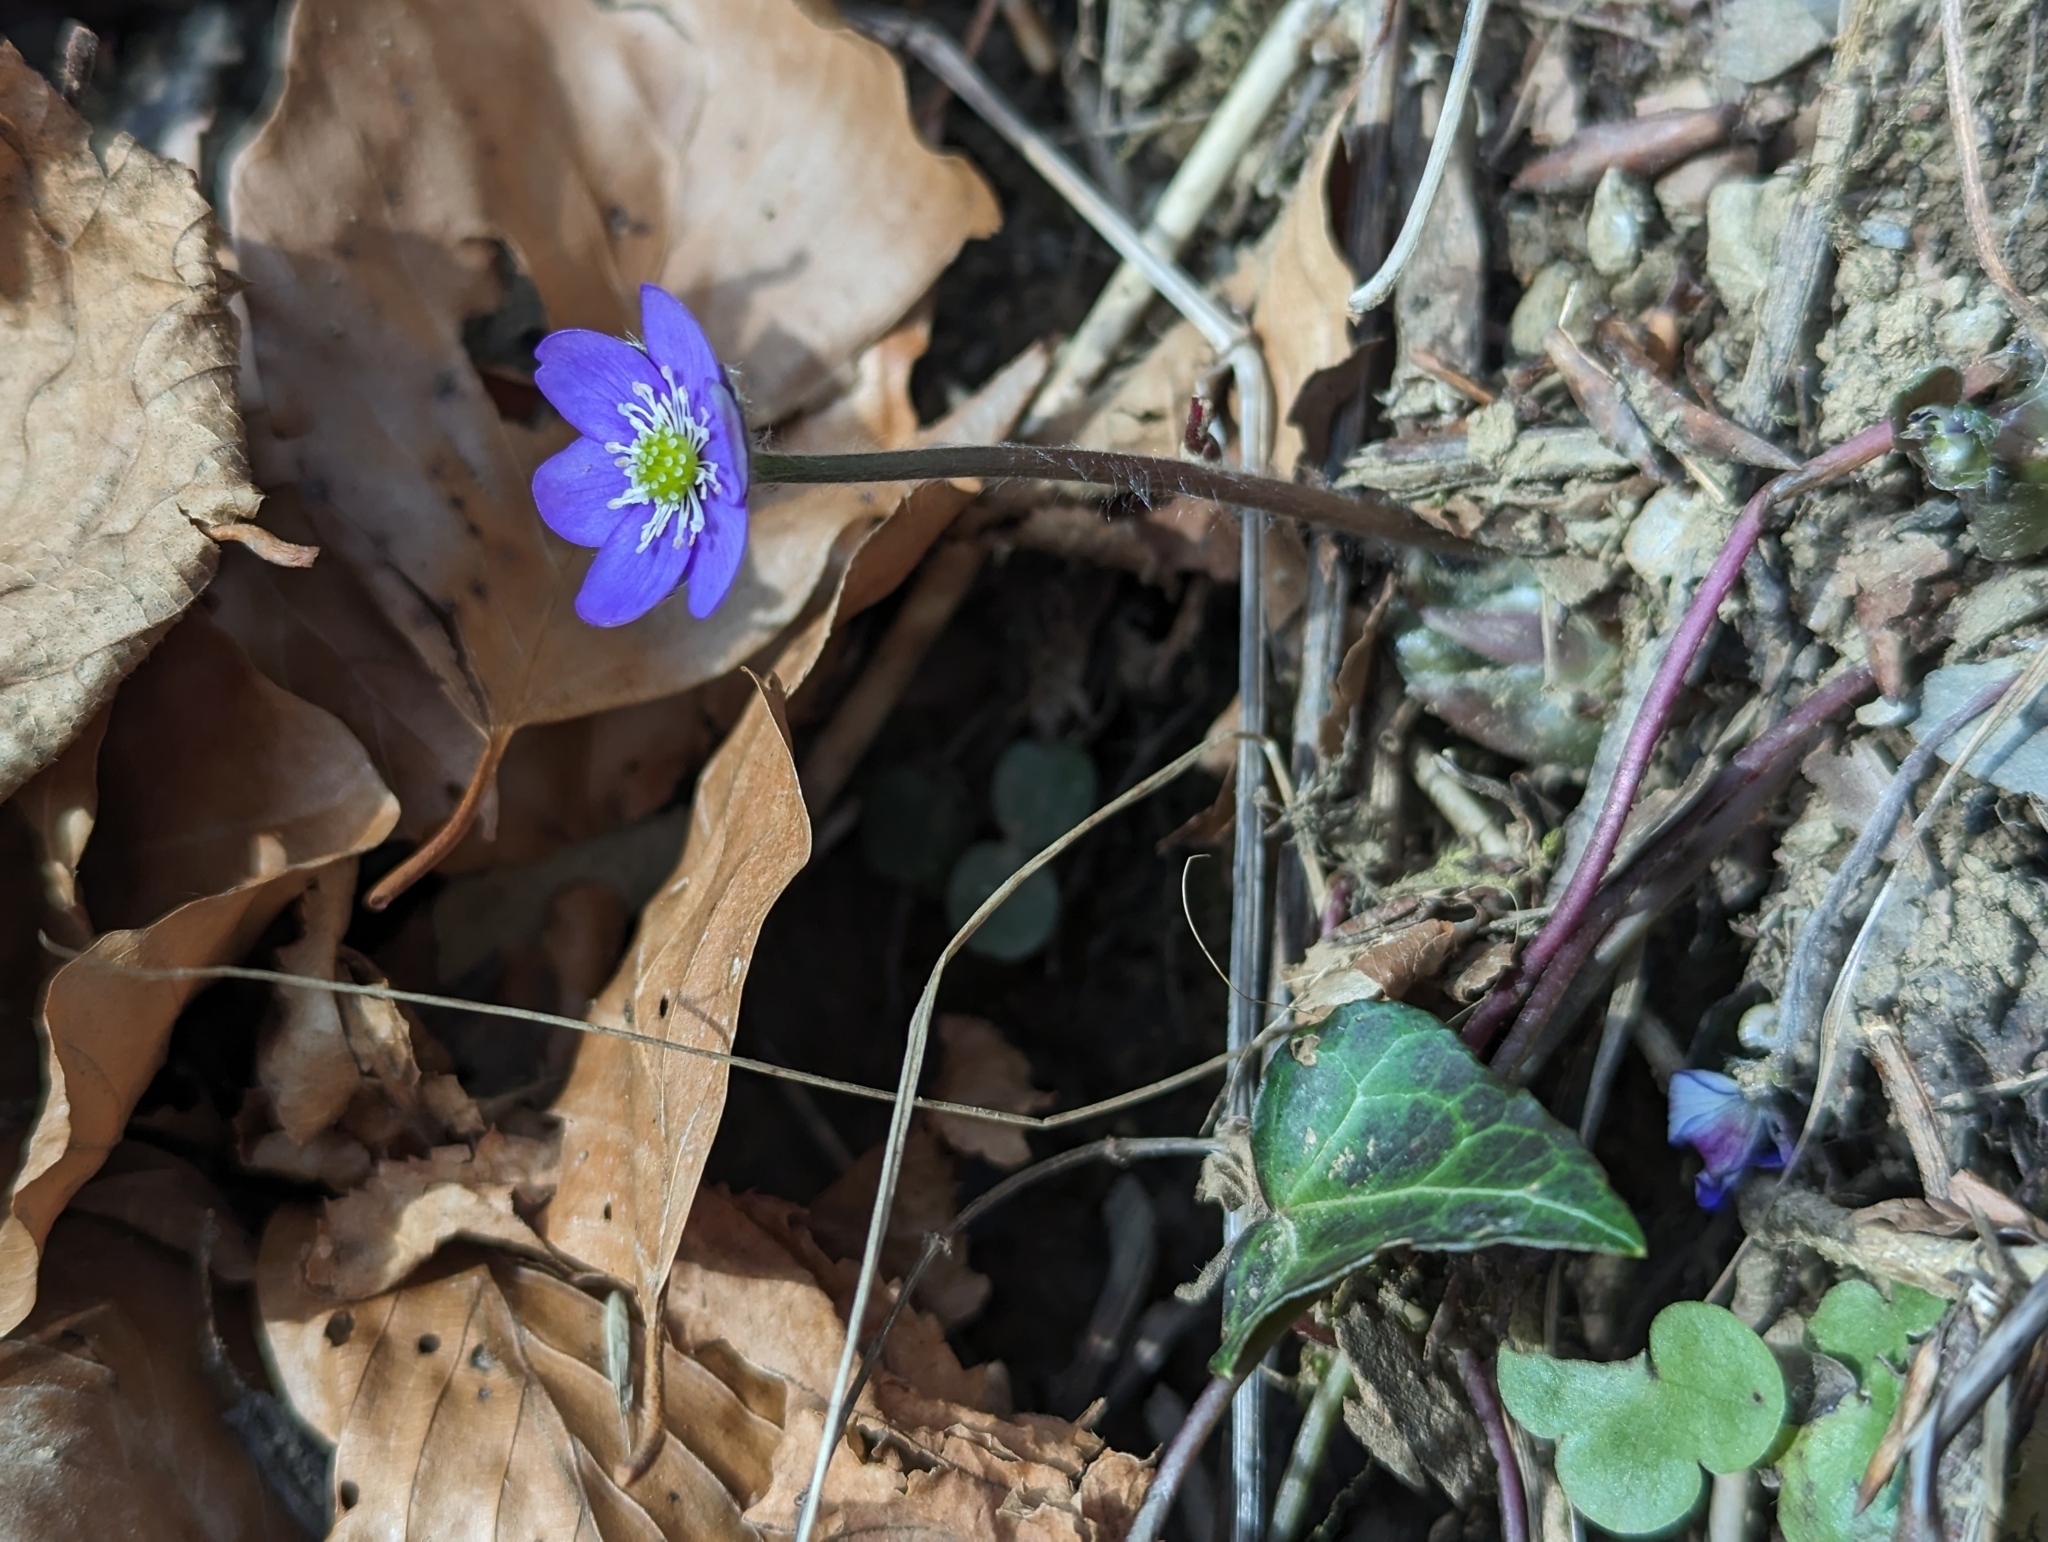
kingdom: Plantae
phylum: Tracheophyta
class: Magnoliopsida
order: Ranunculales
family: Ranunculaceae
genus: Hepatica
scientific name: Hepatica nobilis
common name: Liverleaf
